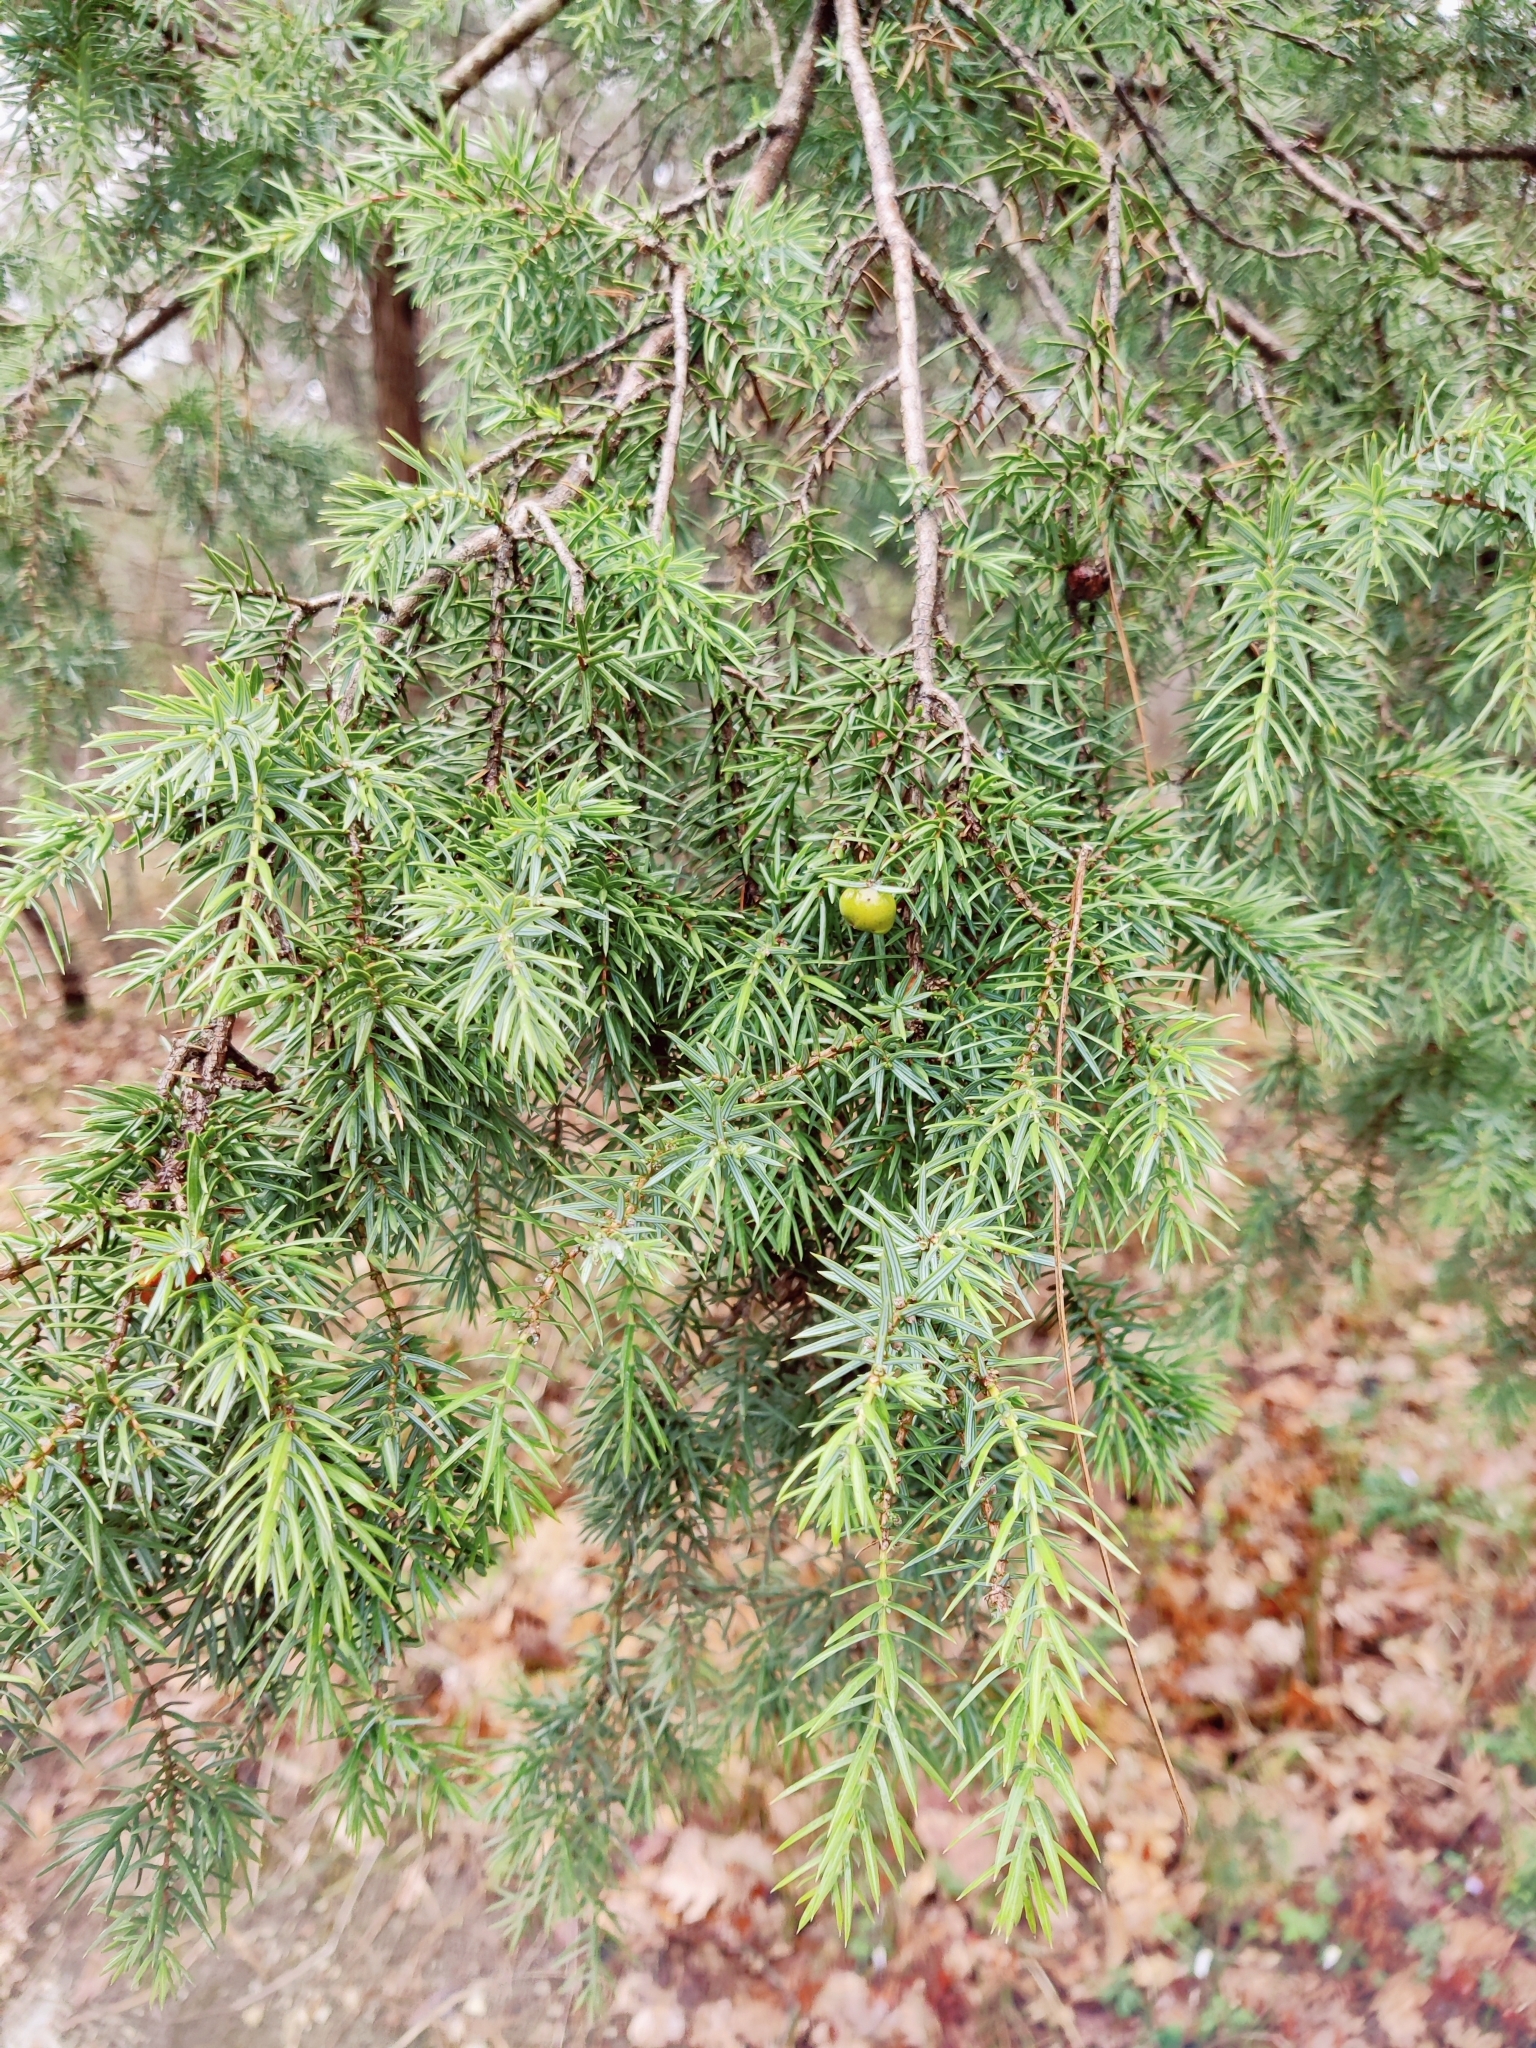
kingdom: Plantae
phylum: Tracheophyta
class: Pinopsida
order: Pinales
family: Cupressaceae
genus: Juniperus
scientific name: Juniperus oxycedrus
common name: Prickly juniper
